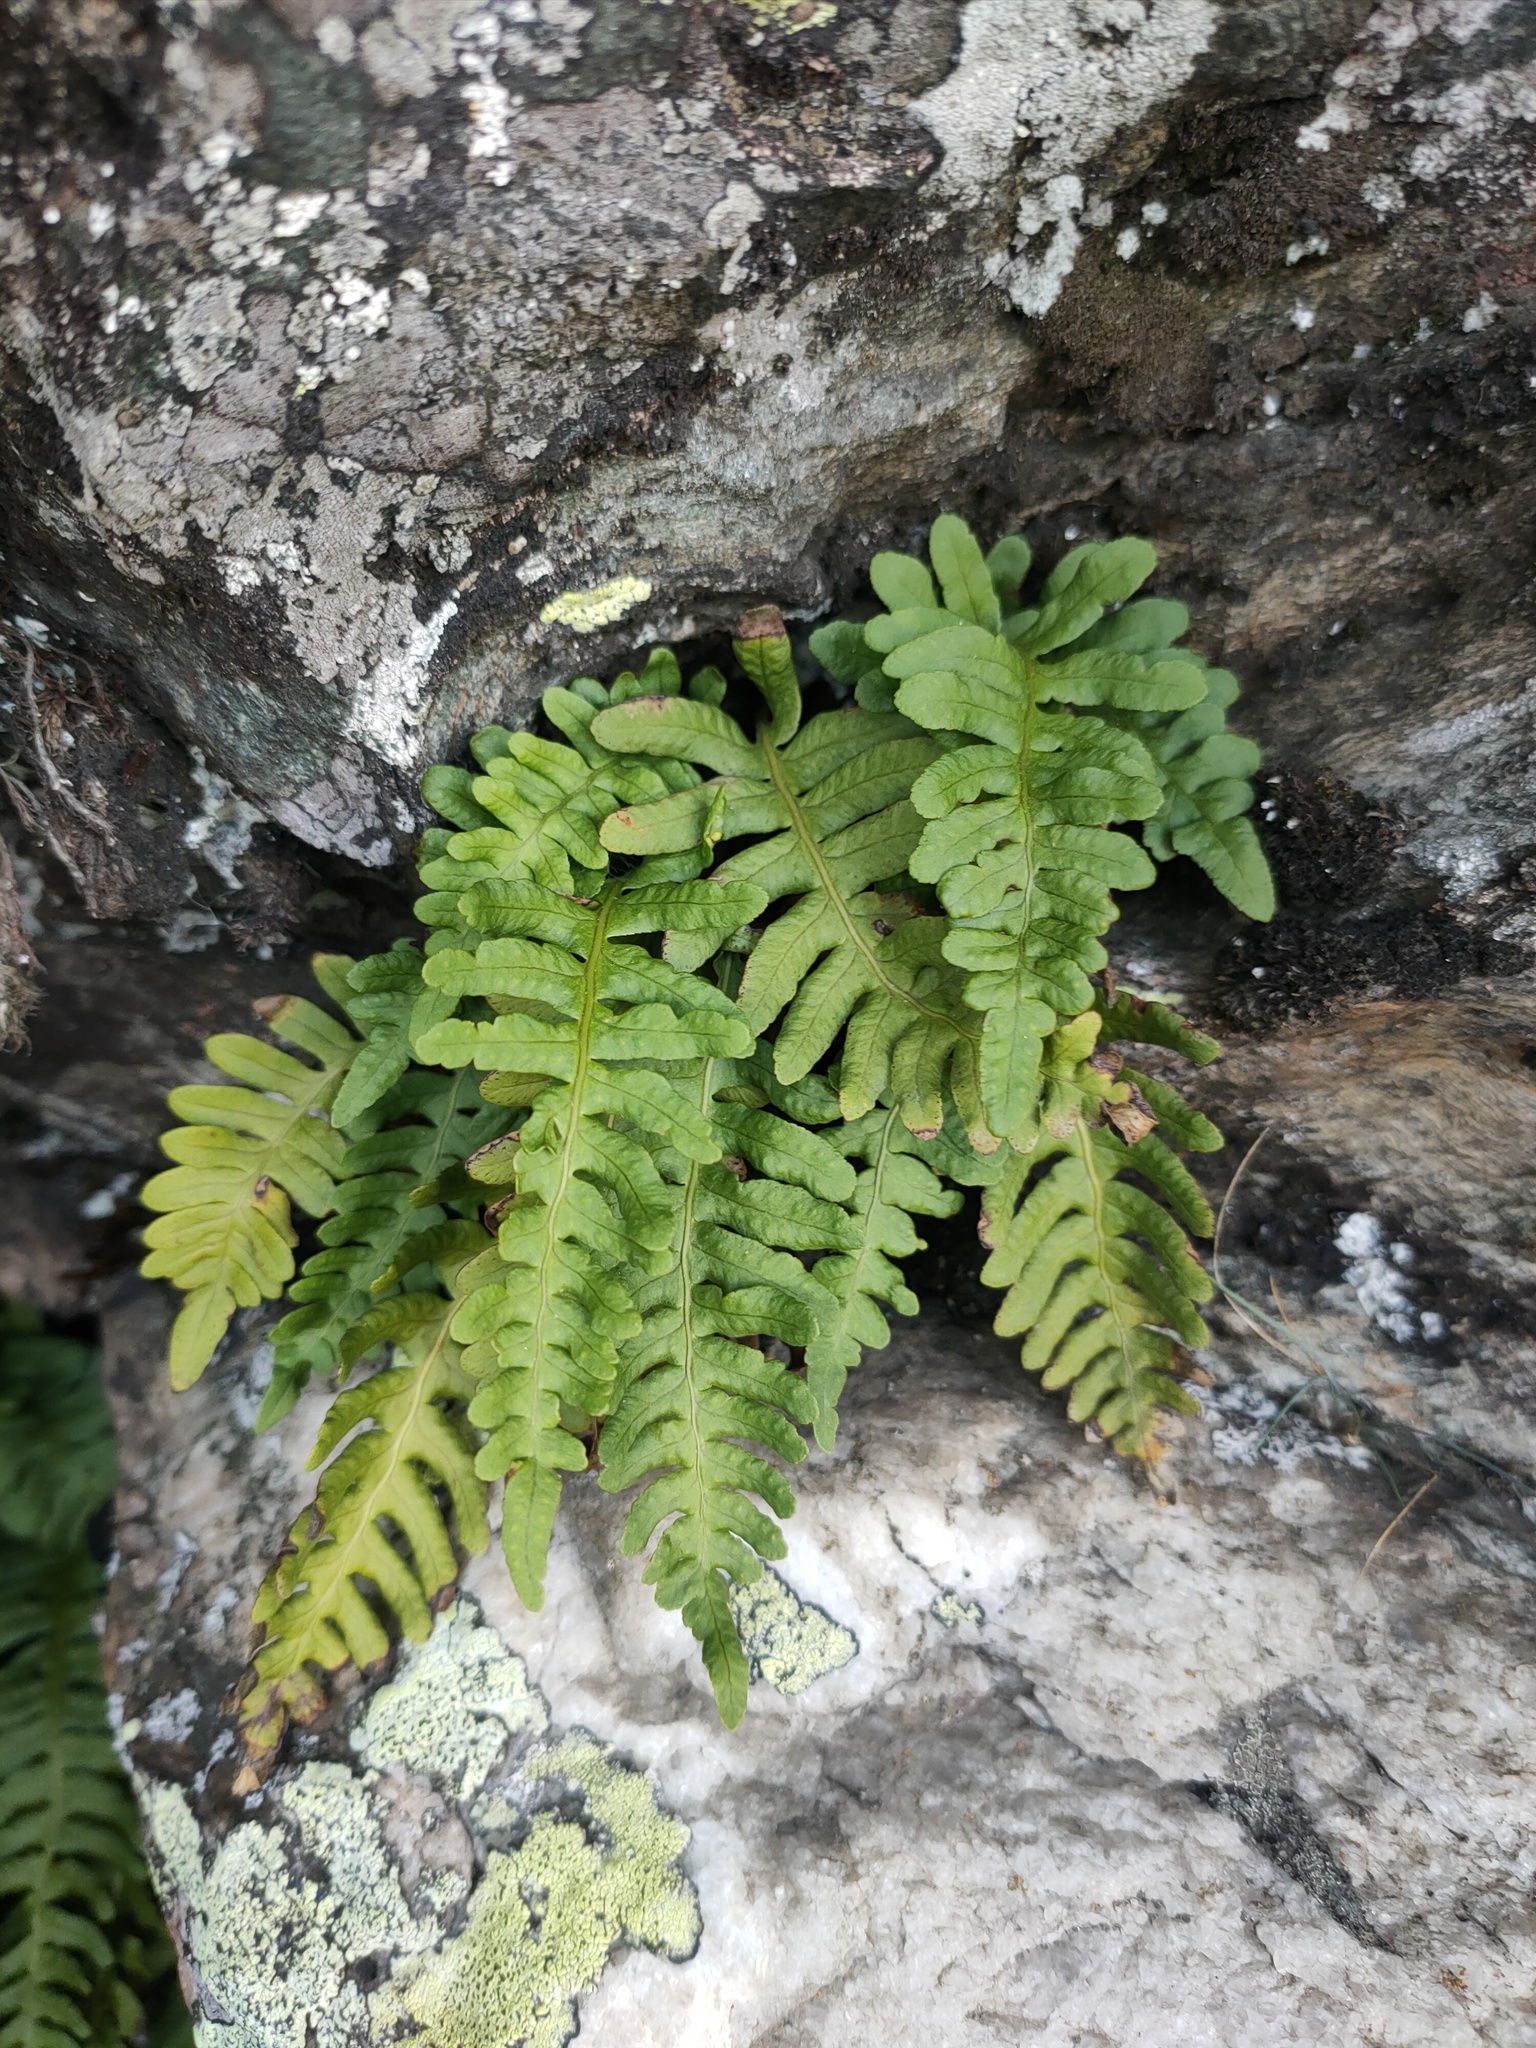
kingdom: Plantae
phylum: Tracheophyta
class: Polypodiopsida
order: Polypodiales
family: Polypodiaceae
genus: Polypodium
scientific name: Polypodium vulgare
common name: Common polypody
